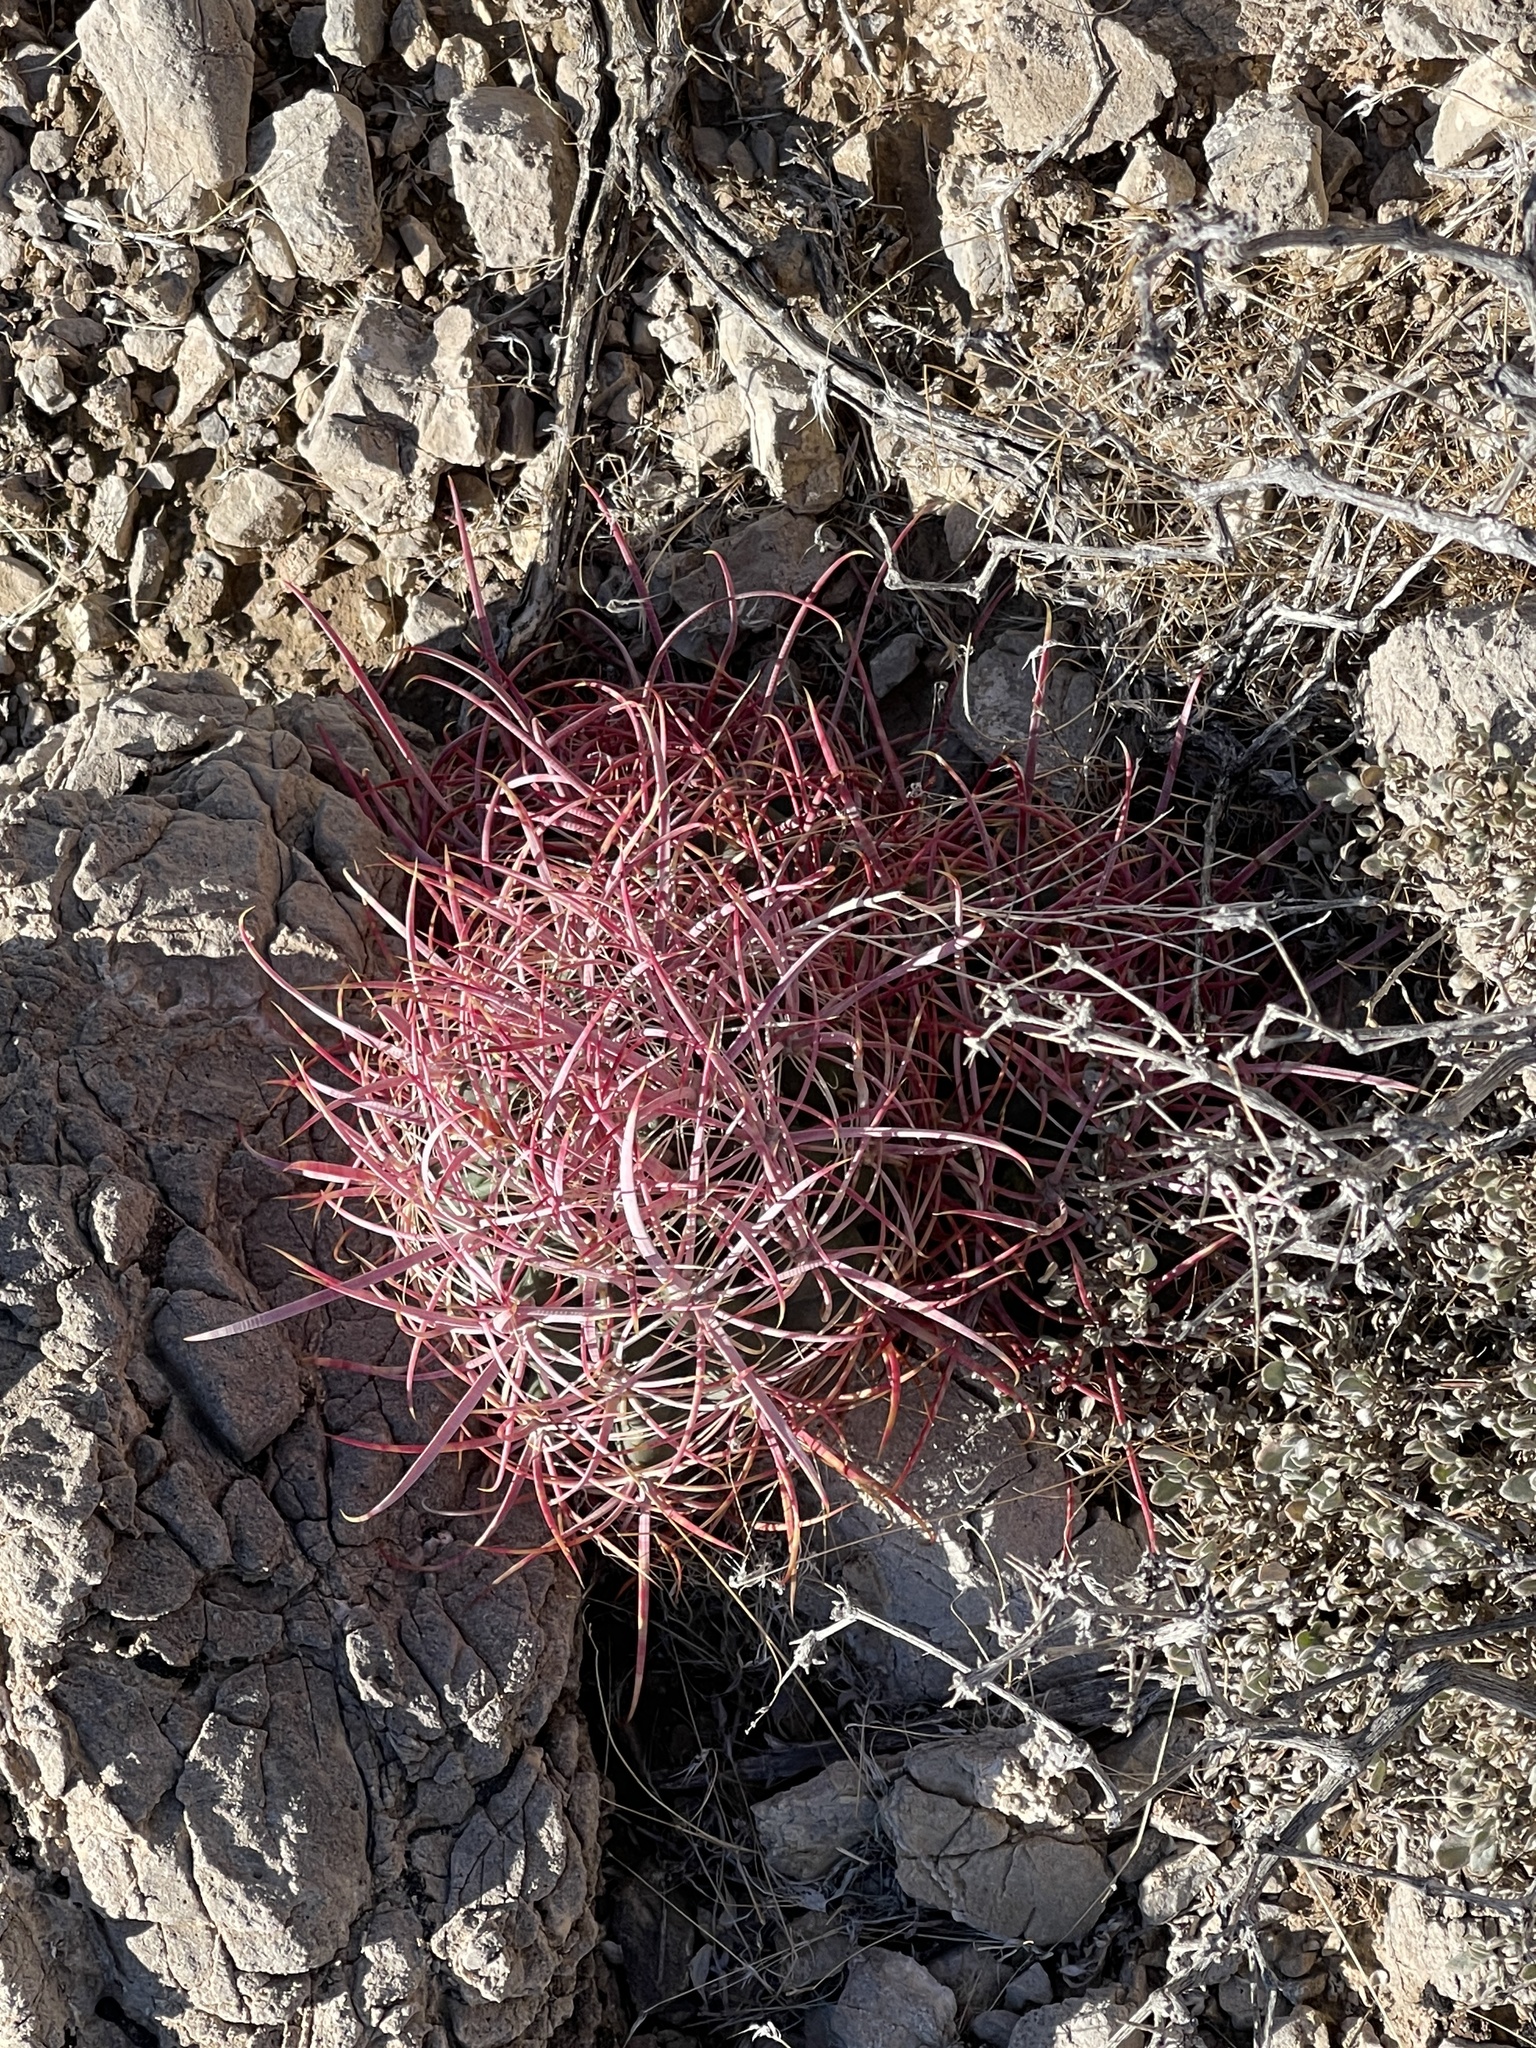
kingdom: Plantae
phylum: Tracheophyta
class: Magnoliopsida
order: Caryophyllales
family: Cactaceae
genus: Ferocactus
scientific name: Ferocactus cylindraceus
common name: California barrel cactus
